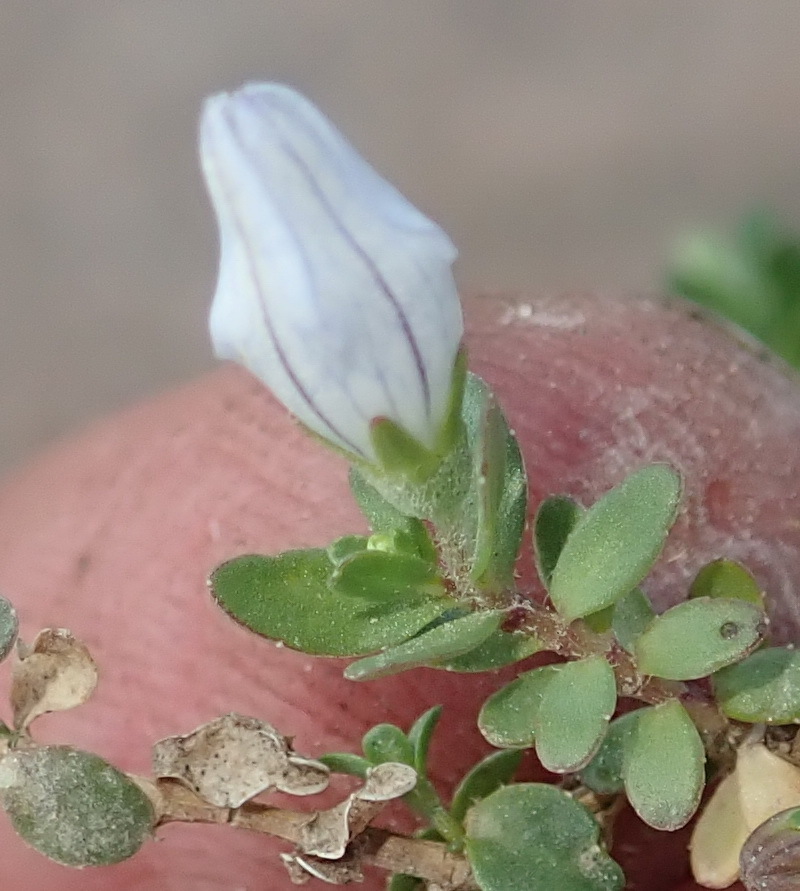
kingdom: Plantae
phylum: Tracheophyta
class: Magnoliopsida
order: Asterales
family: Campanulaceae
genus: Wahlenbergia
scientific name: Wahlenbergia procumbens
